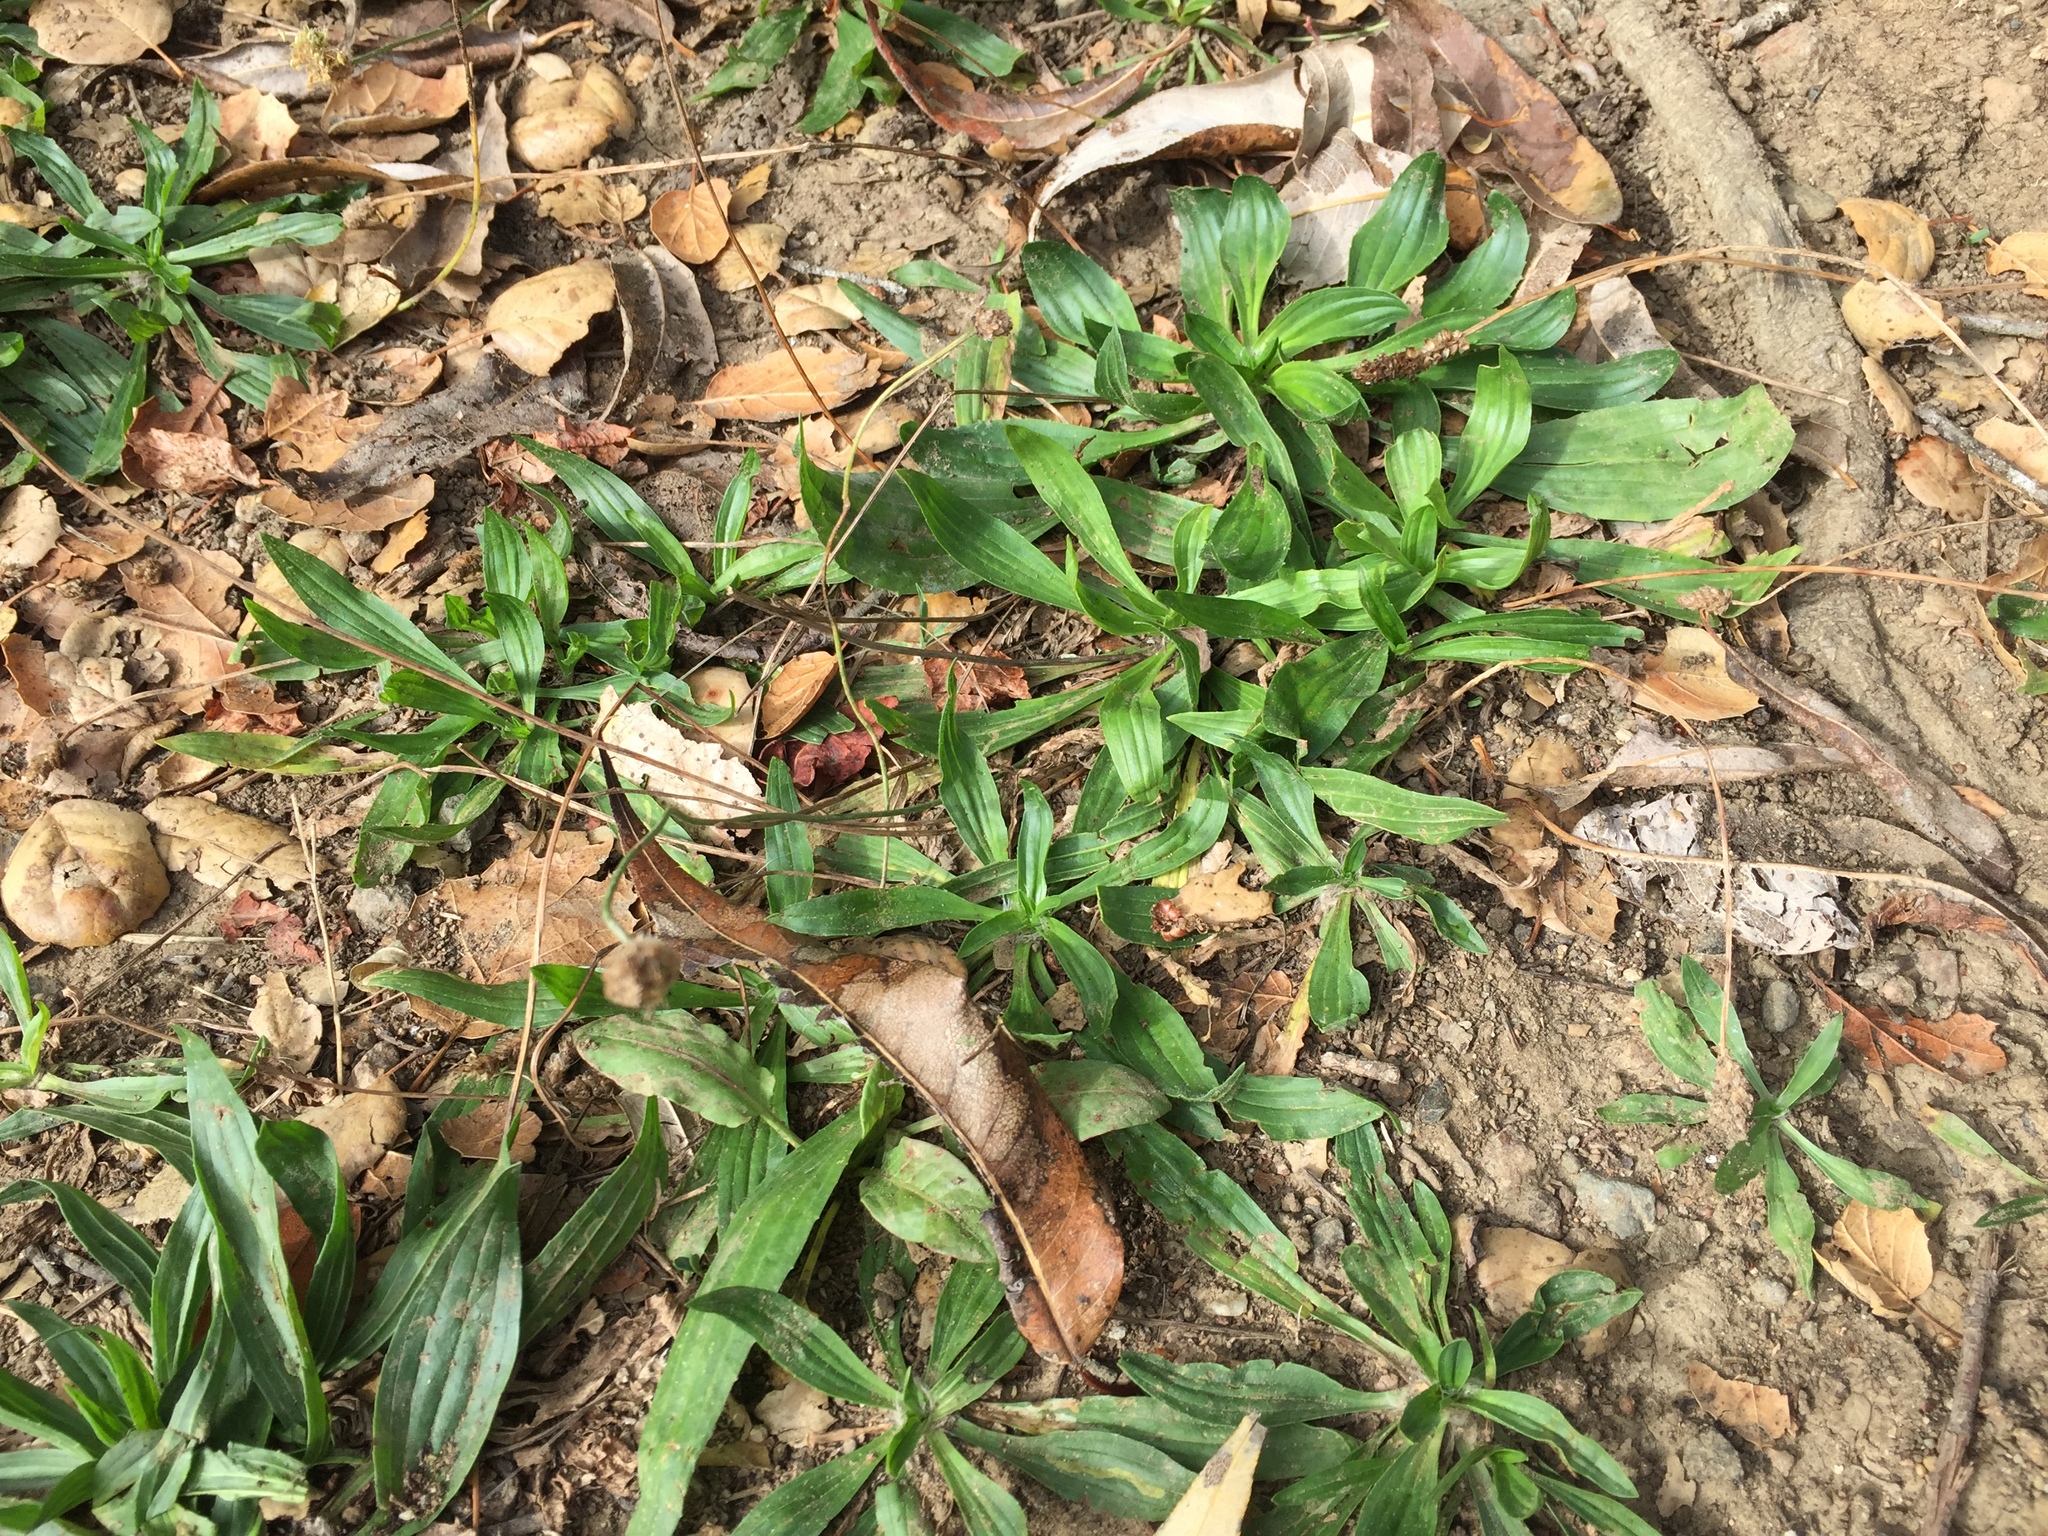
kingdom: Plantae
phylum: Tracheophyta
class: Magnoliopsida
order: Lamiales
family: Plantaginaceae
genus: Plantago
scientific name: Plantago lanceolata
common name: Ribwort plantain
